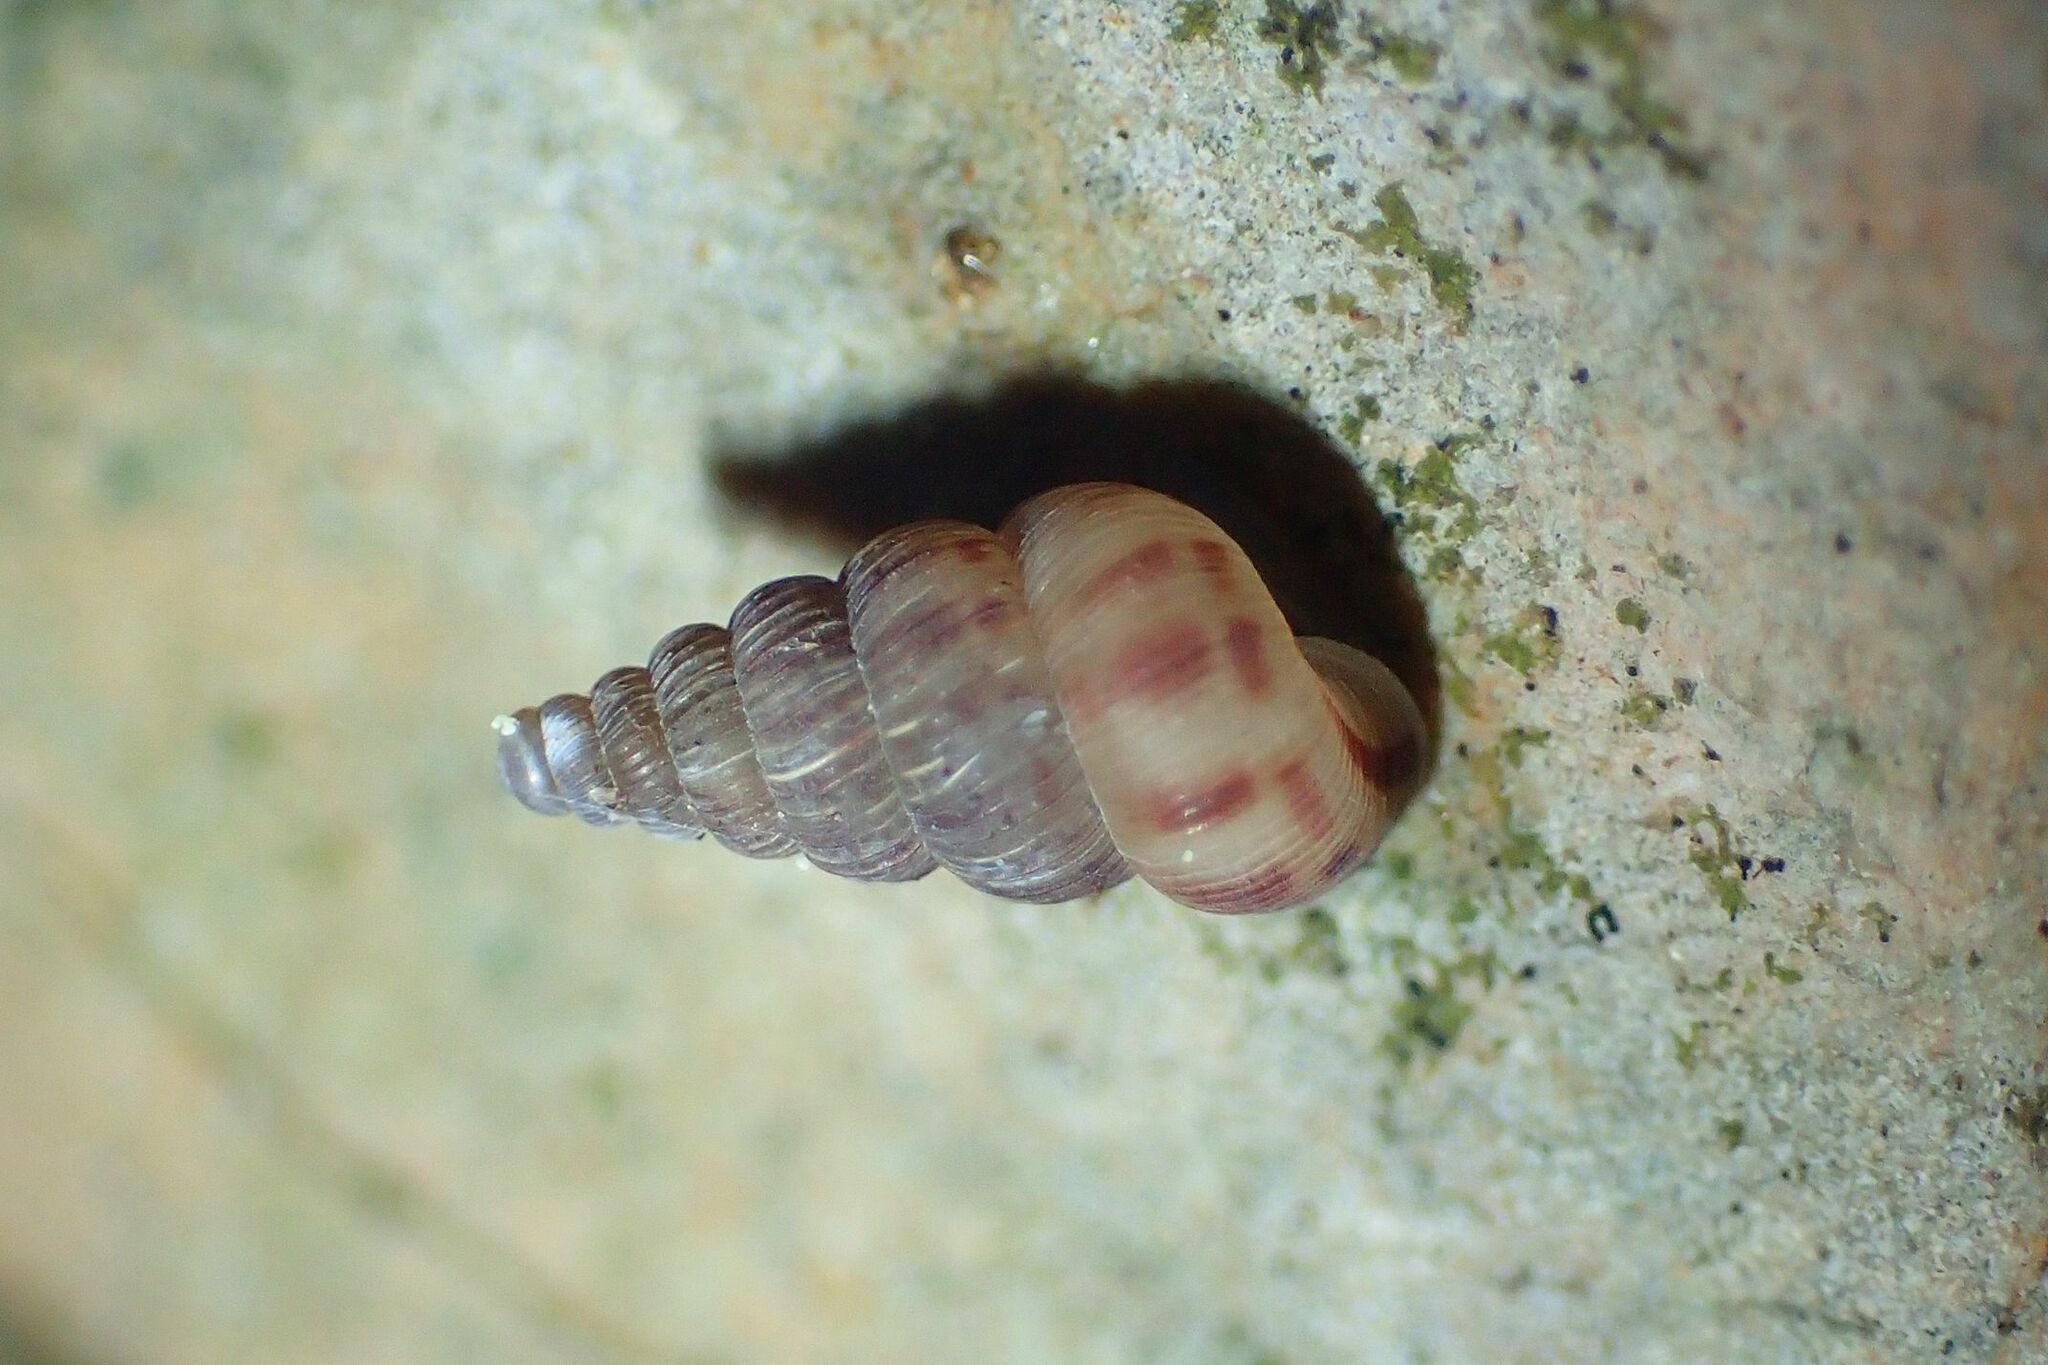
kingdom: Animalia
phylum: Mollusca
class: Gastropoda
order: Architaenioglossa
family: Cochlostomatidae
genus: Cochlostoma
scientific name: Cochlostoma septemspirale
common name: Seven-whorl snail
